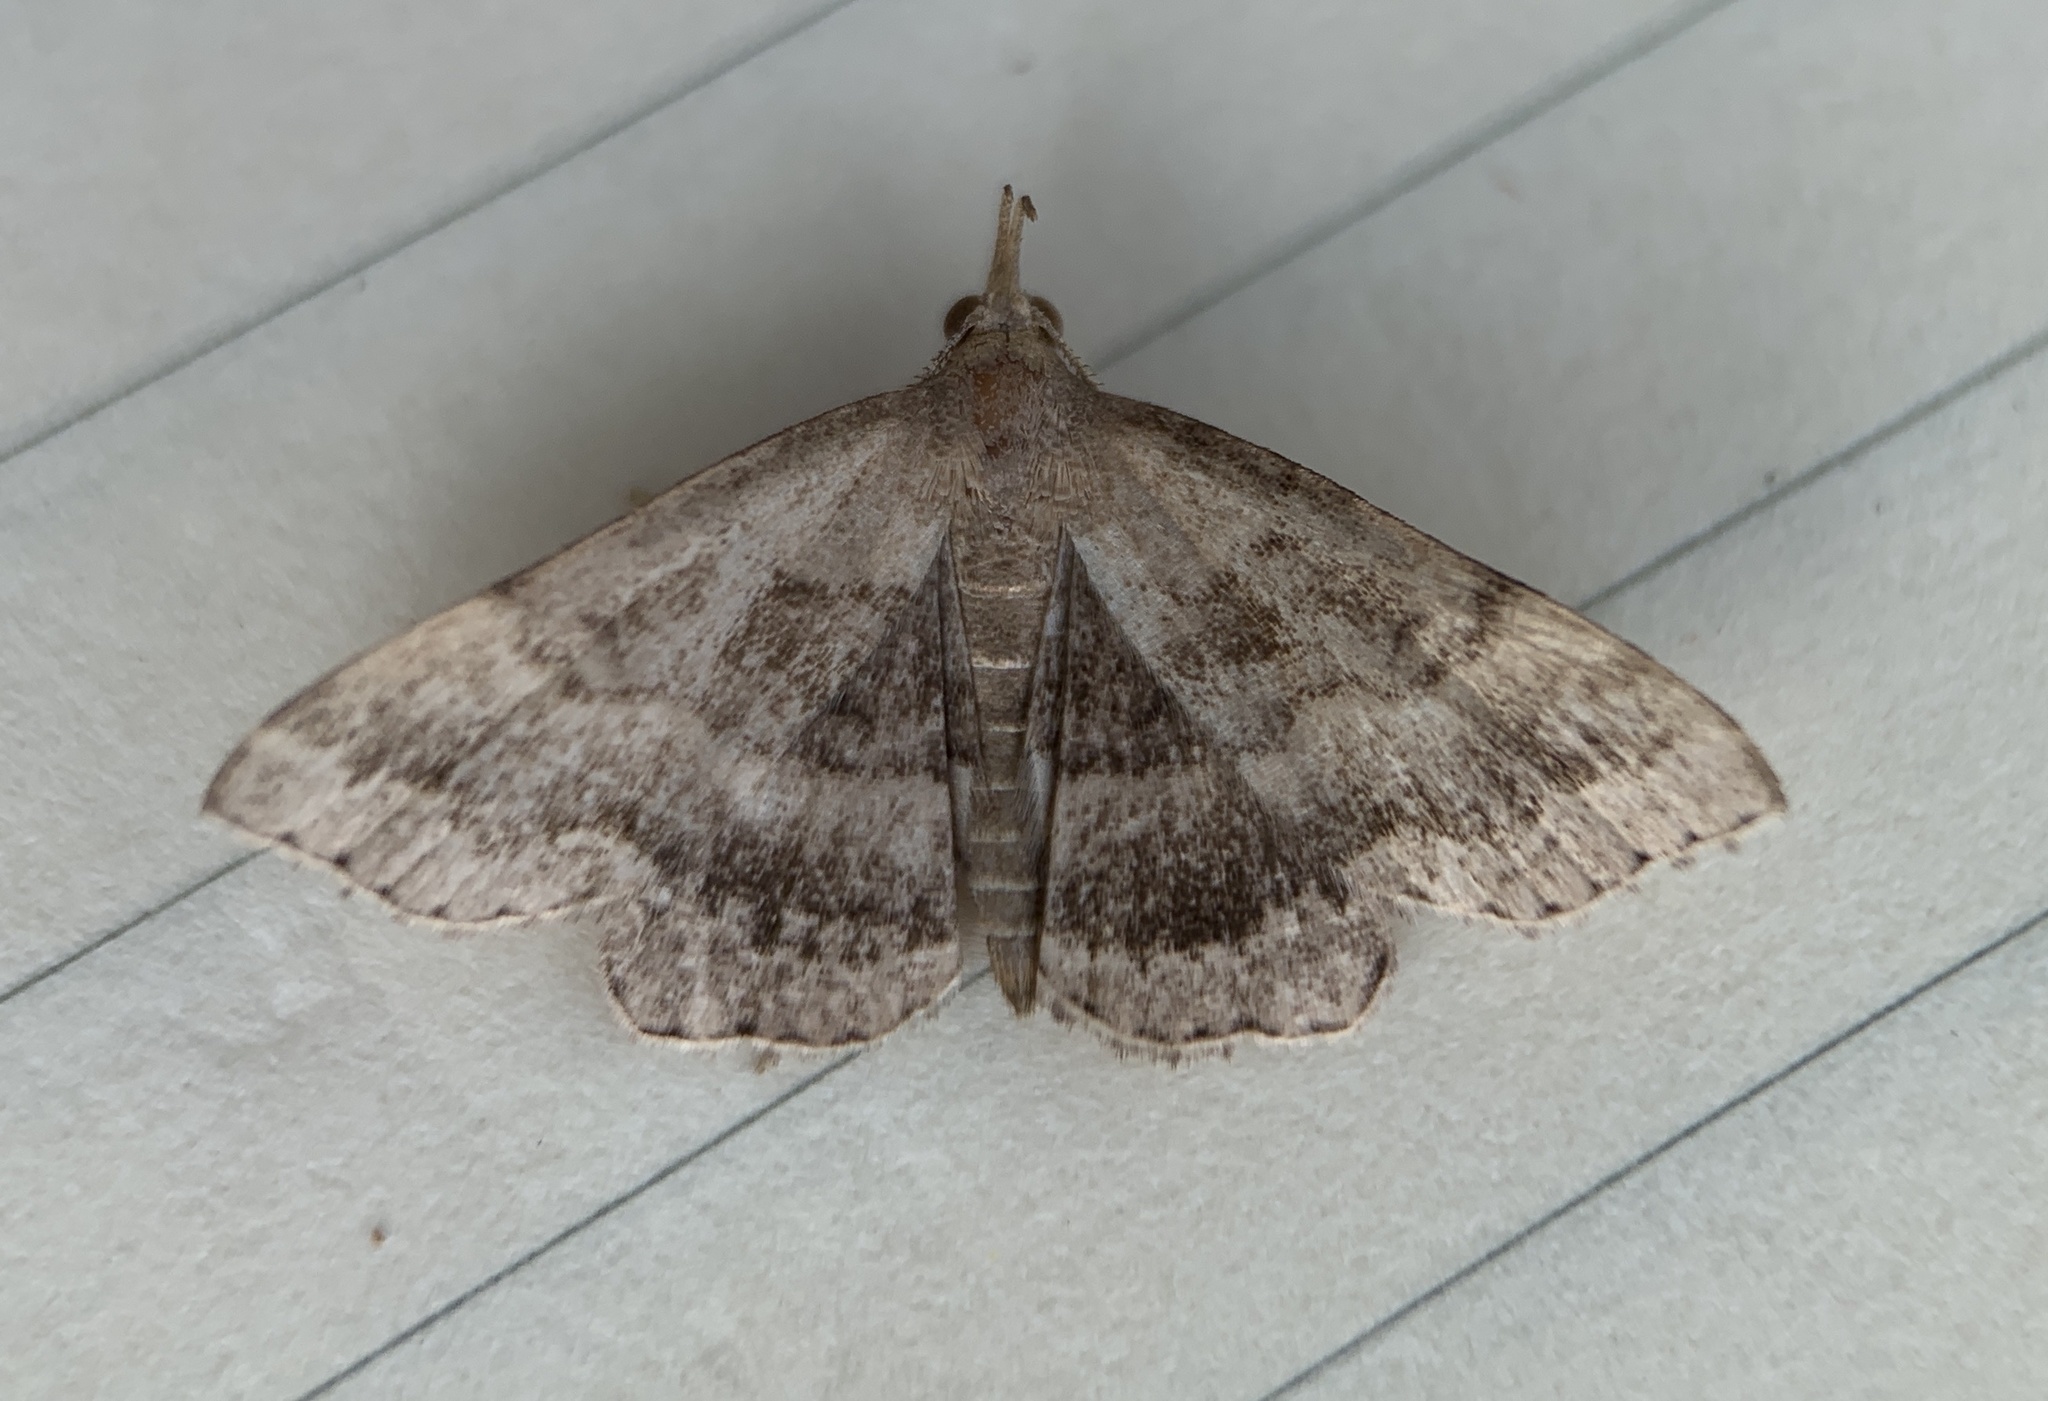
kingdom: Animalia
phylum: Arthropoda
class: Insecta
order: Lepidoptera
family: Erebidae
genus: Phalaenostola
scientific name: Phalaenostola larentioides
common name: Black-banded owlet
